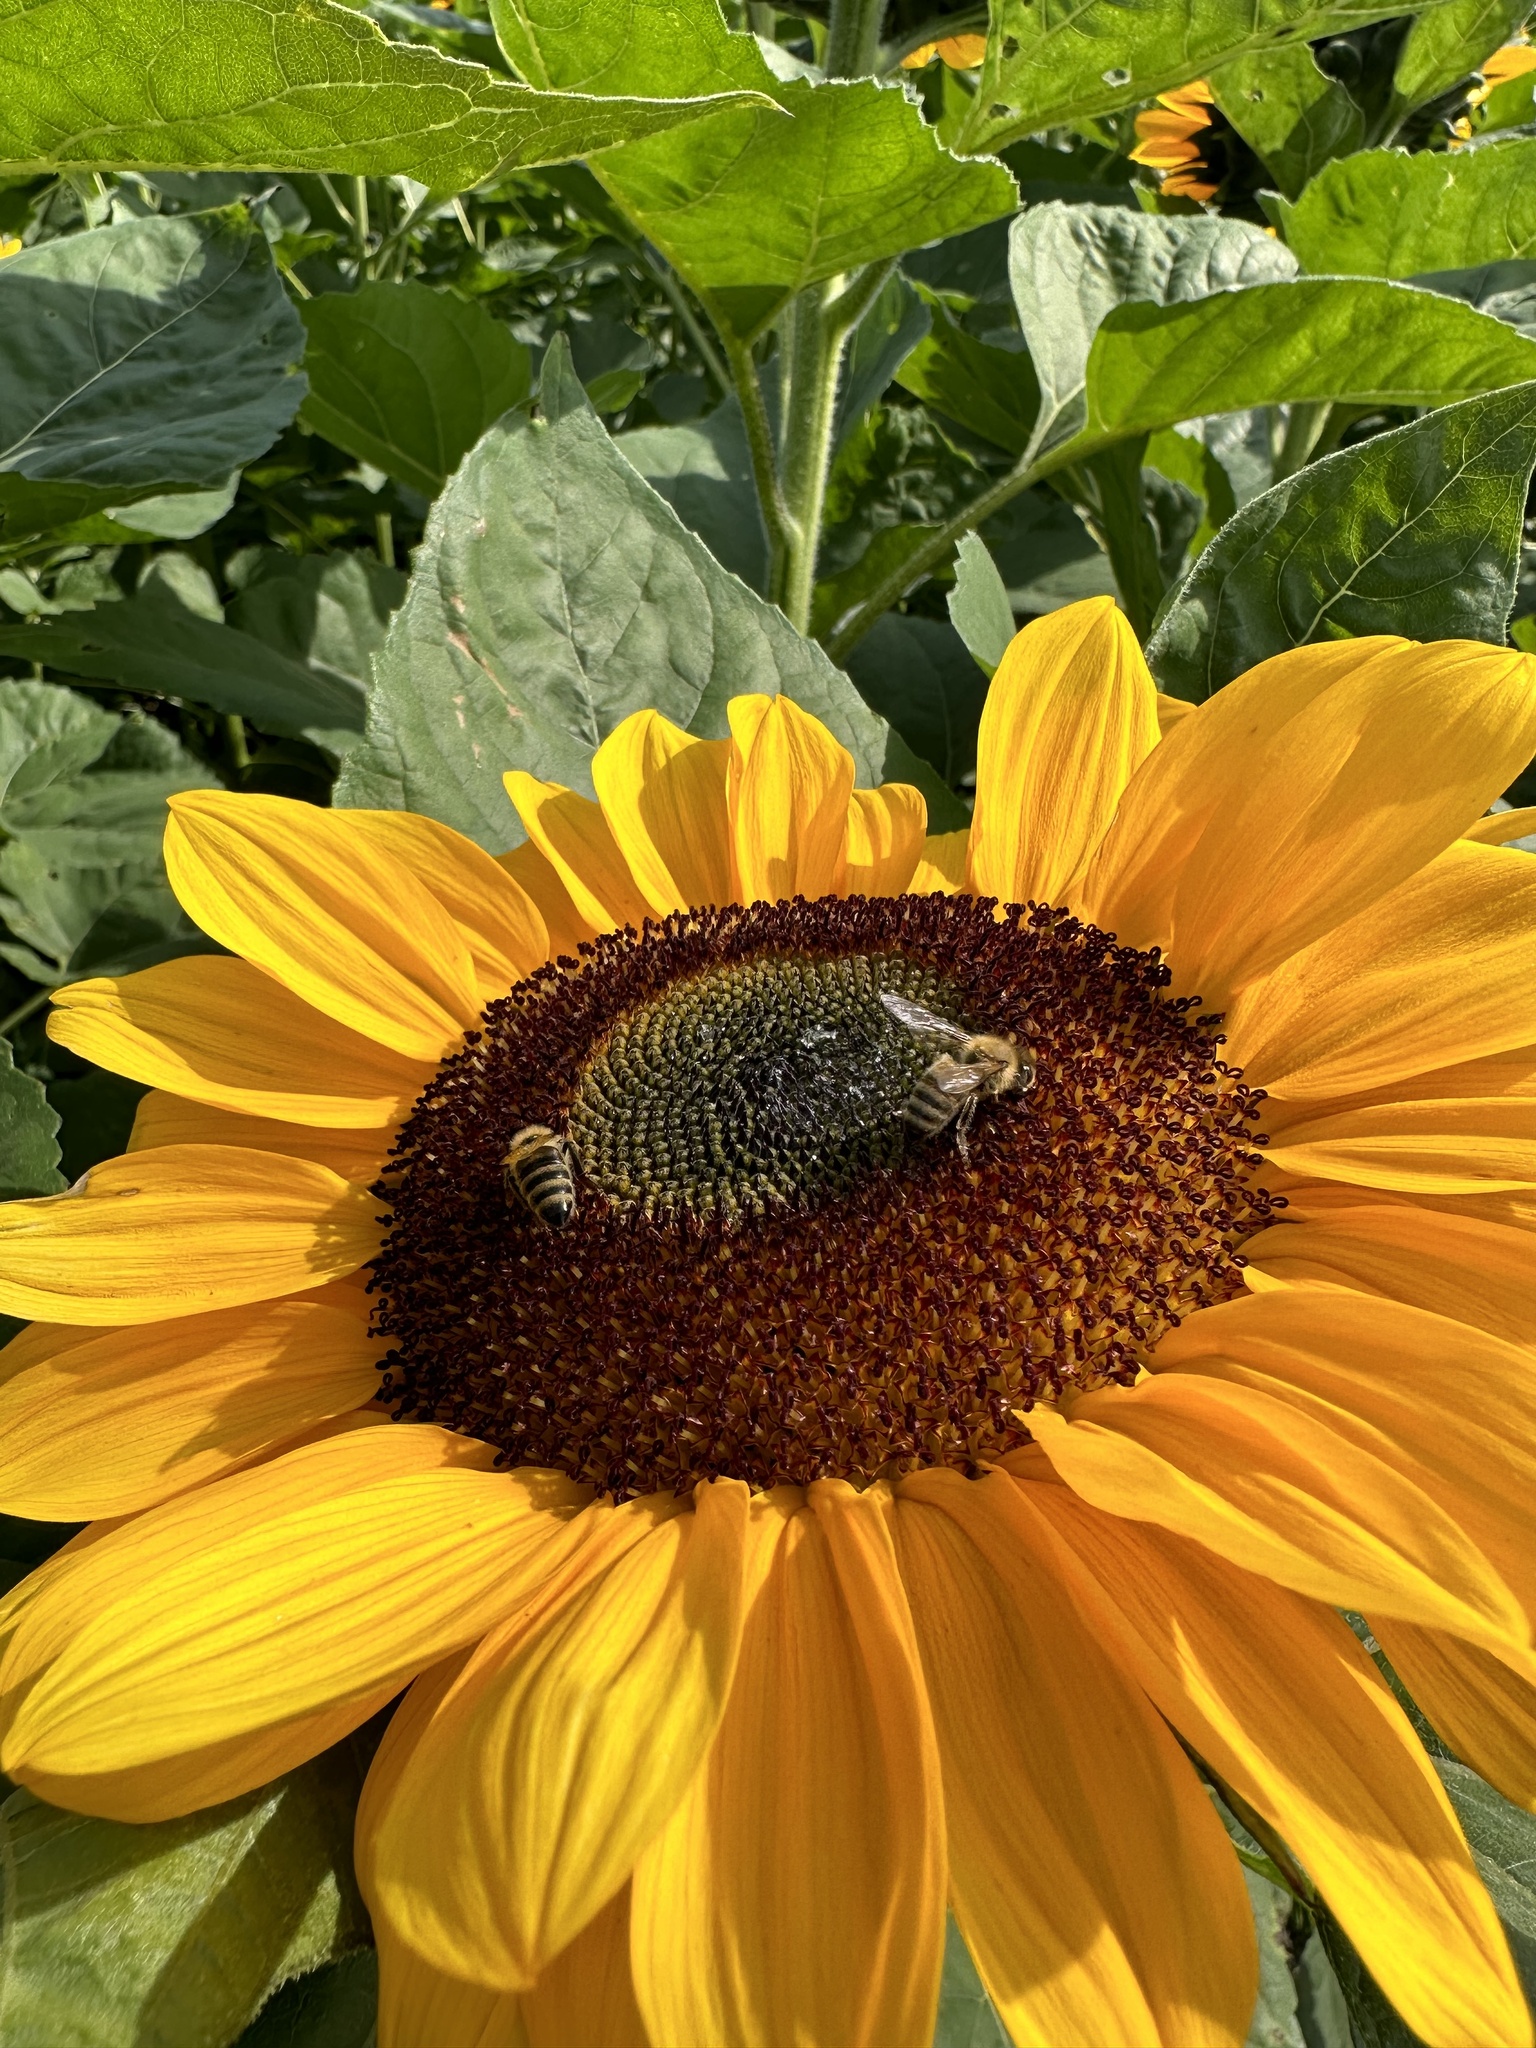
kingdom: Animalia
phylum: Arthropoda
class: Insecta
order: Hymenoptera
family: Apidae
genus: Apis
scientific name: Apis mellifera
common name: Honey bee
